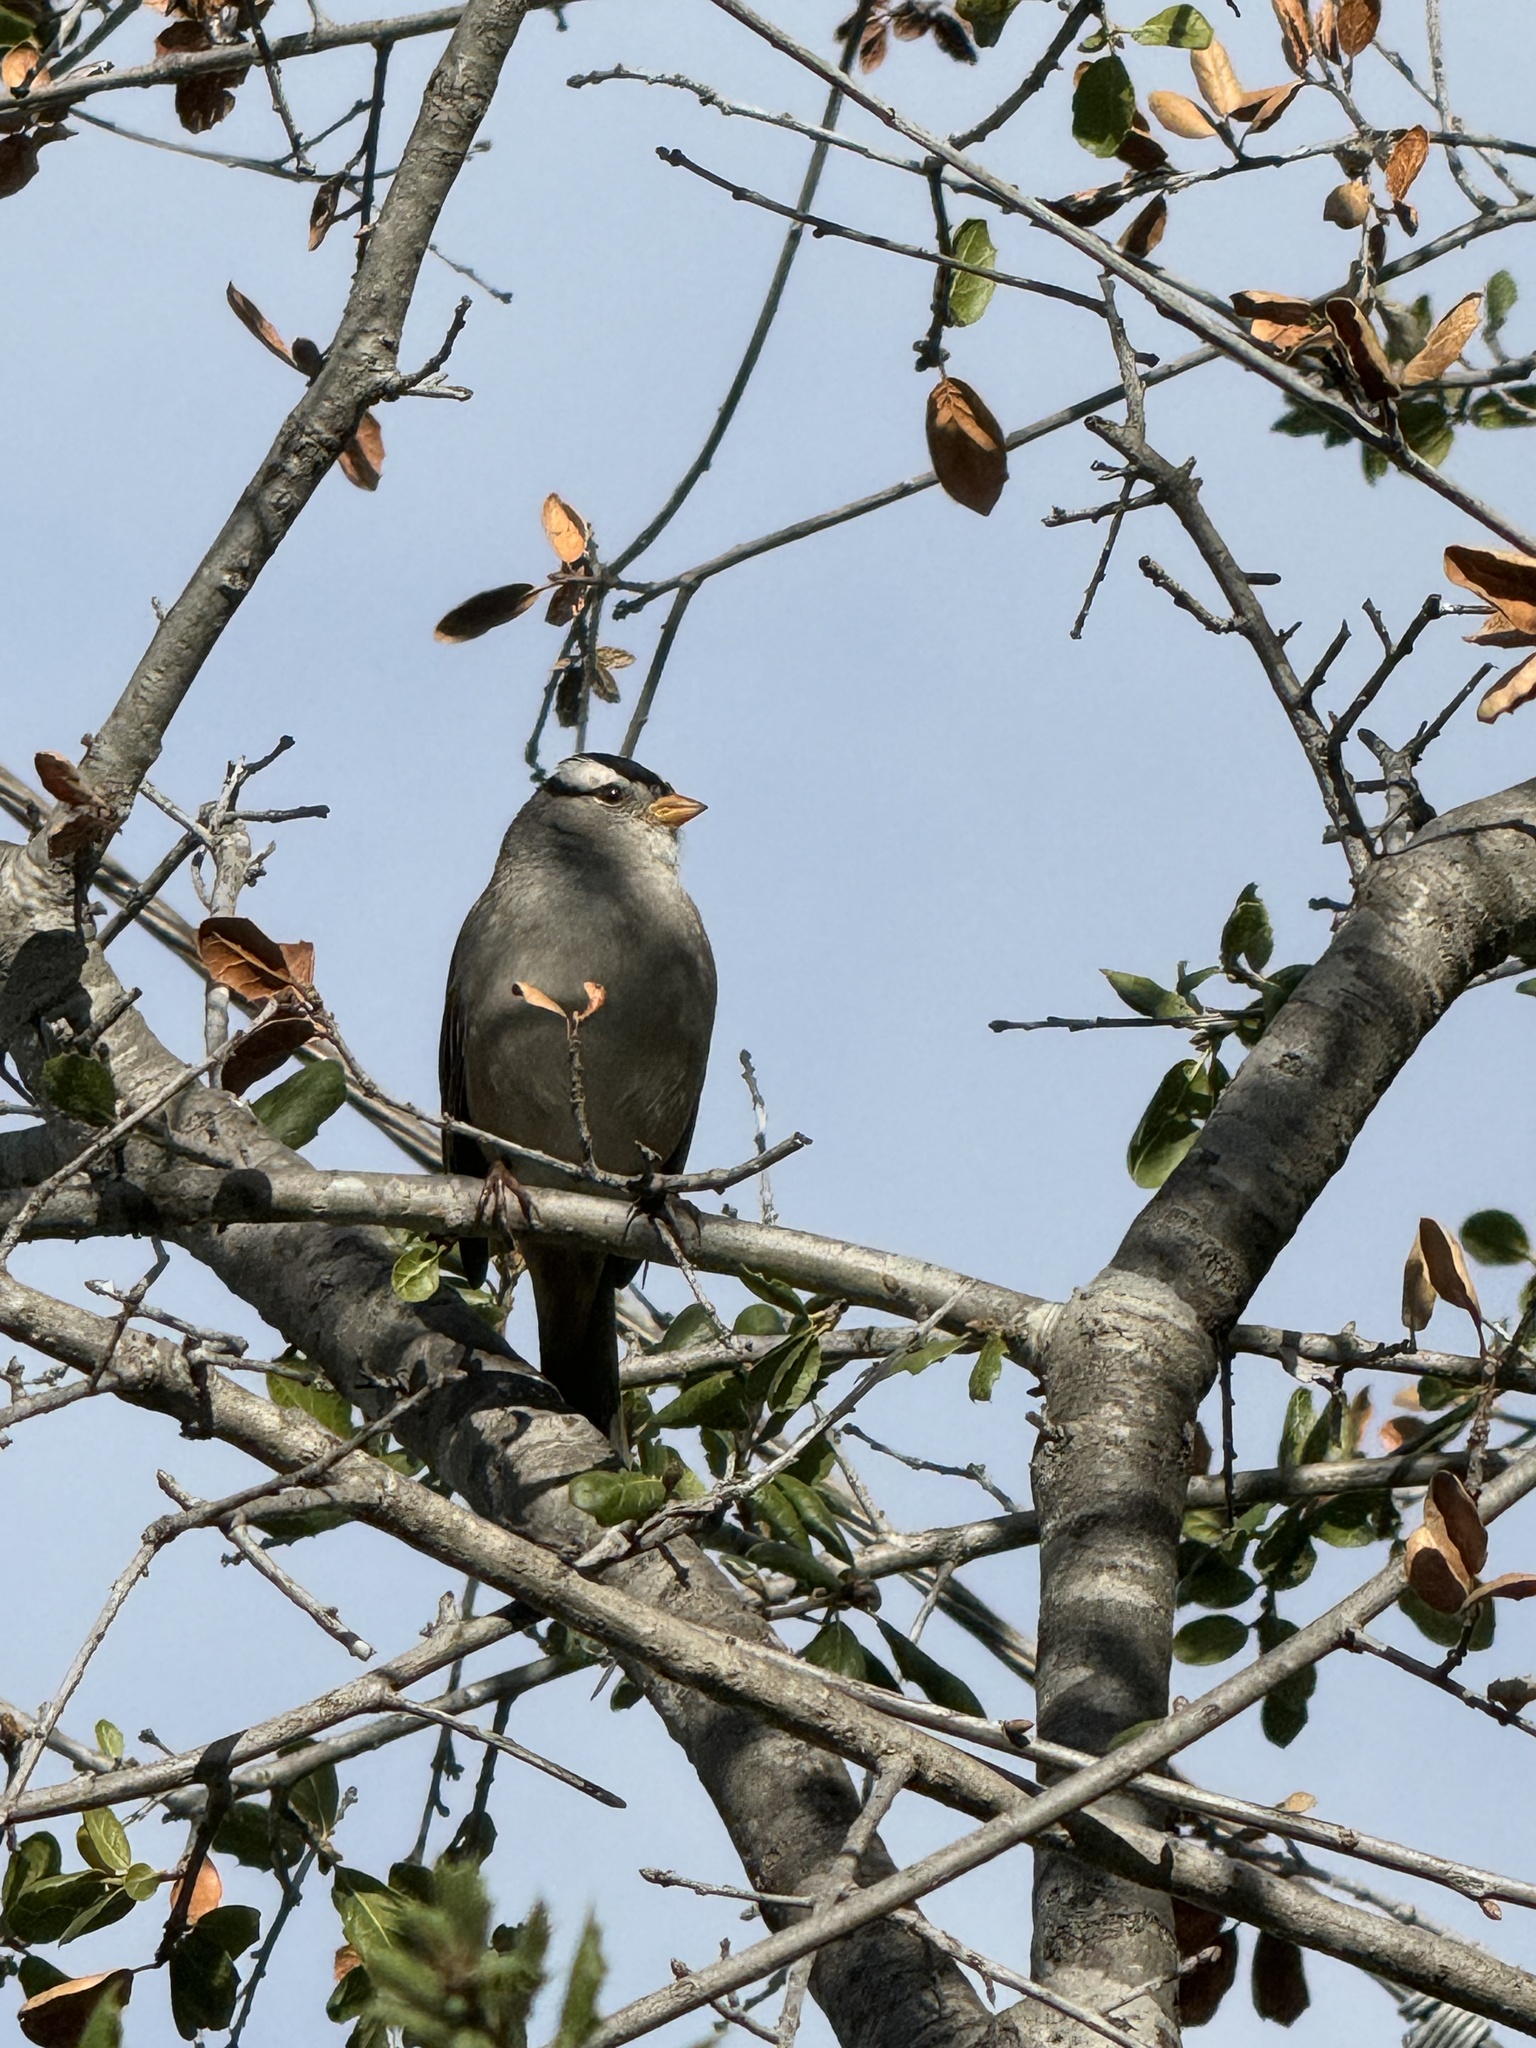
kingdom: Animalia
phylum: Chordata
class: Aves
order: Passeriformes
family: Passerellidae
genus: Zonotrichia
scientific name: Zonotrichia leucophrys
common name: White-crowned sparrow
